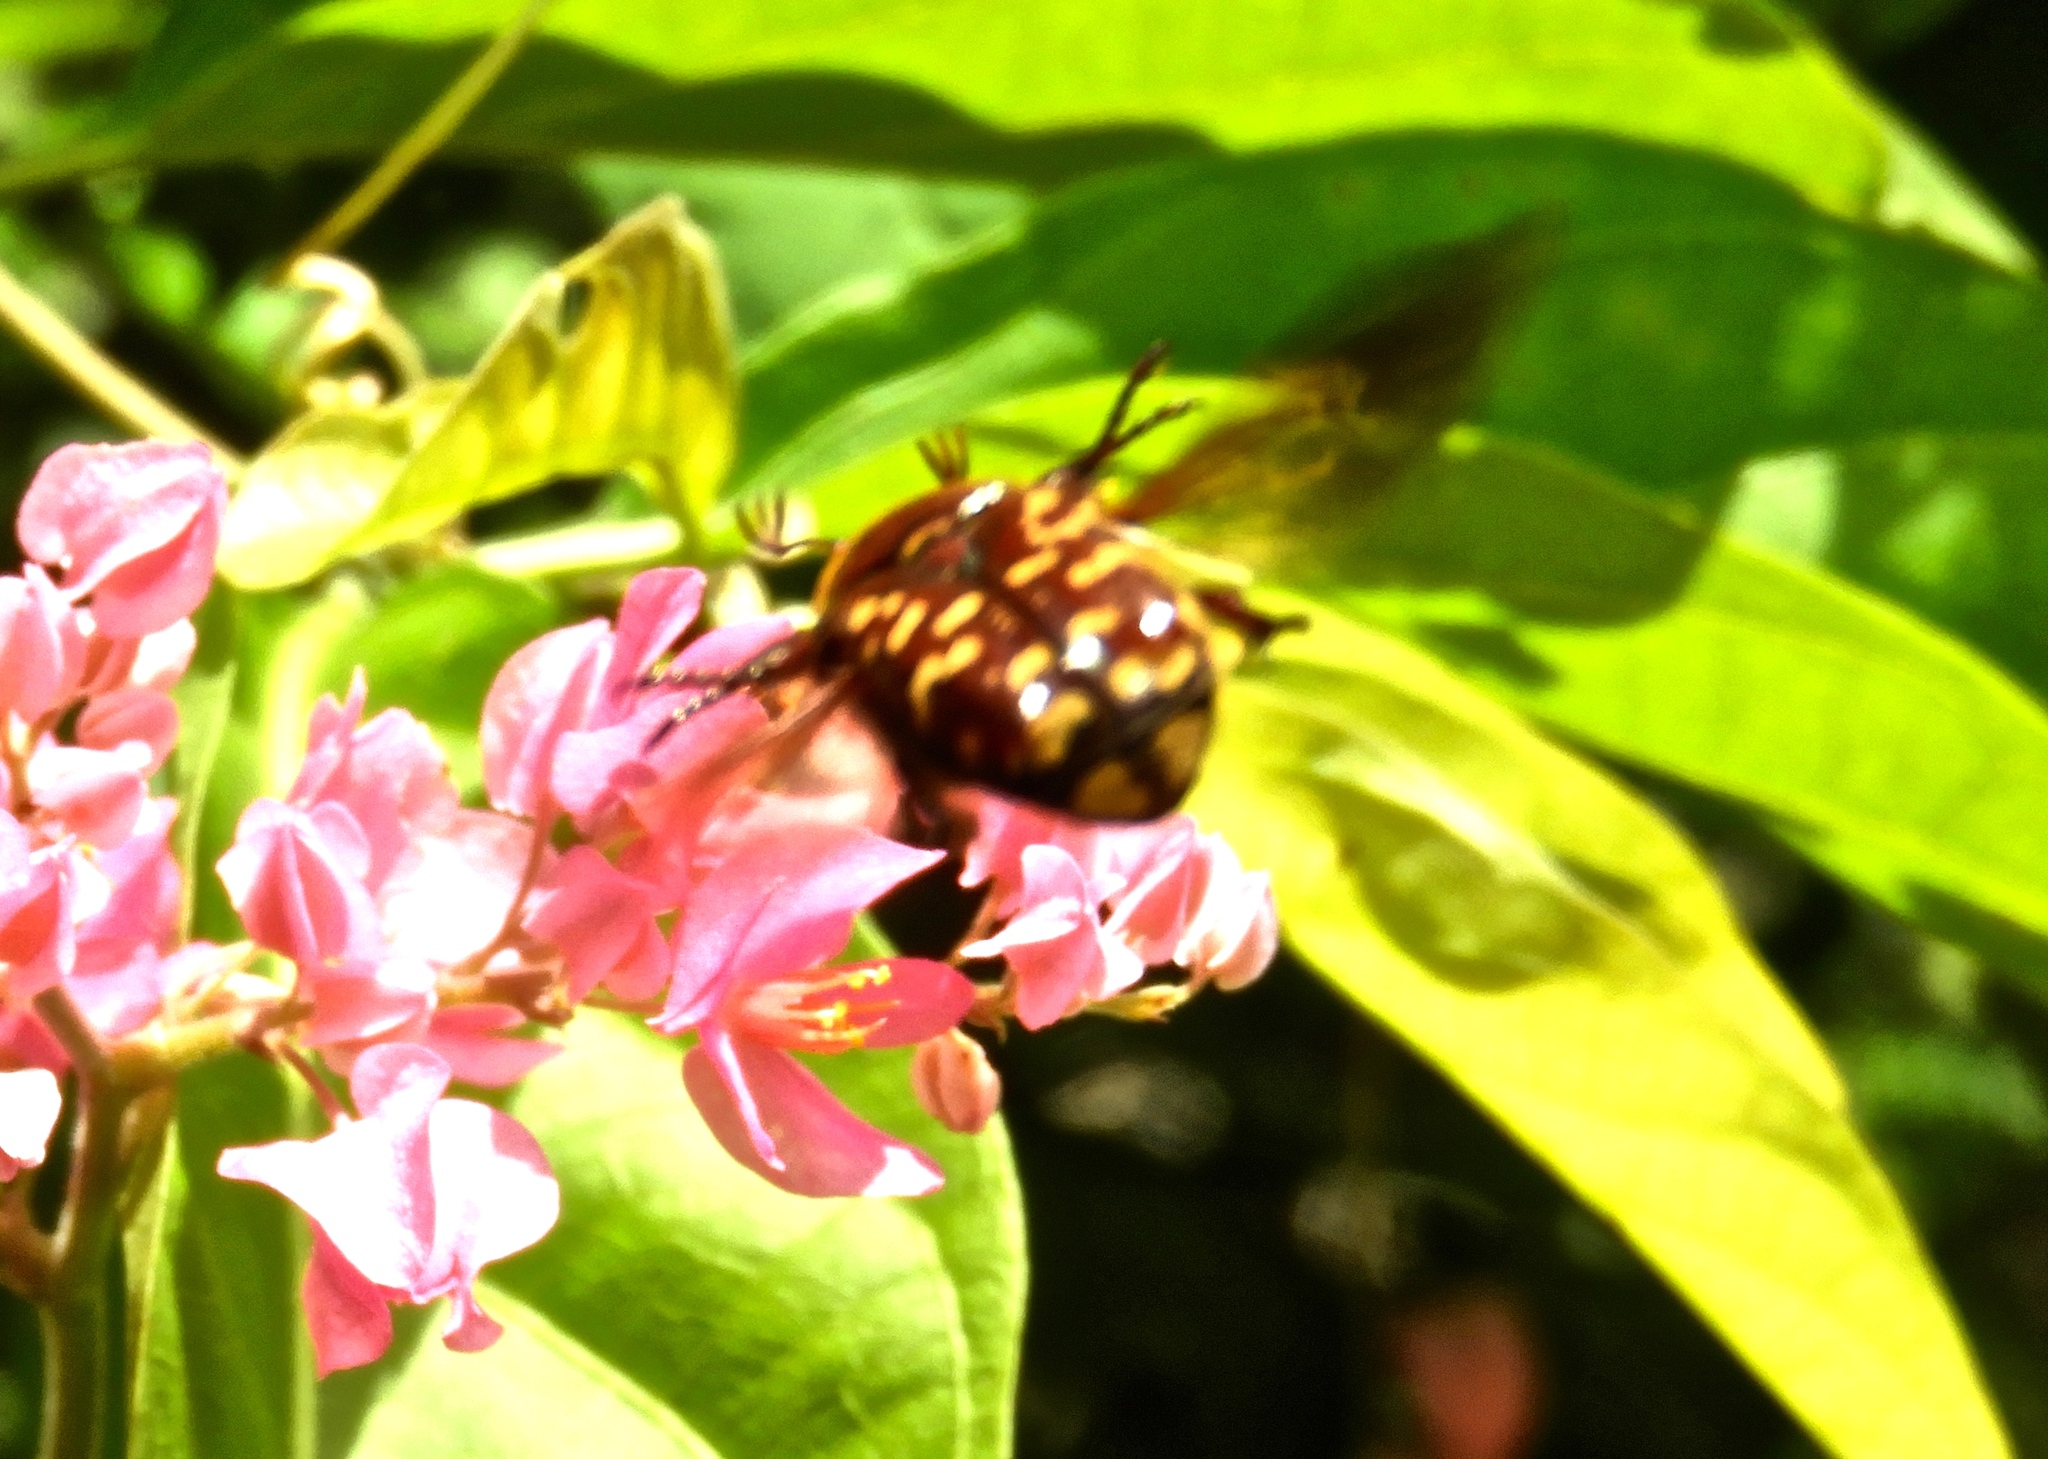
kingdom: Animalia
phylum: Arthropoda
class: Insecta
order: Coleoptera
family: Scarabaeidae
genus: Euphoria
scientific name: Euphoria
